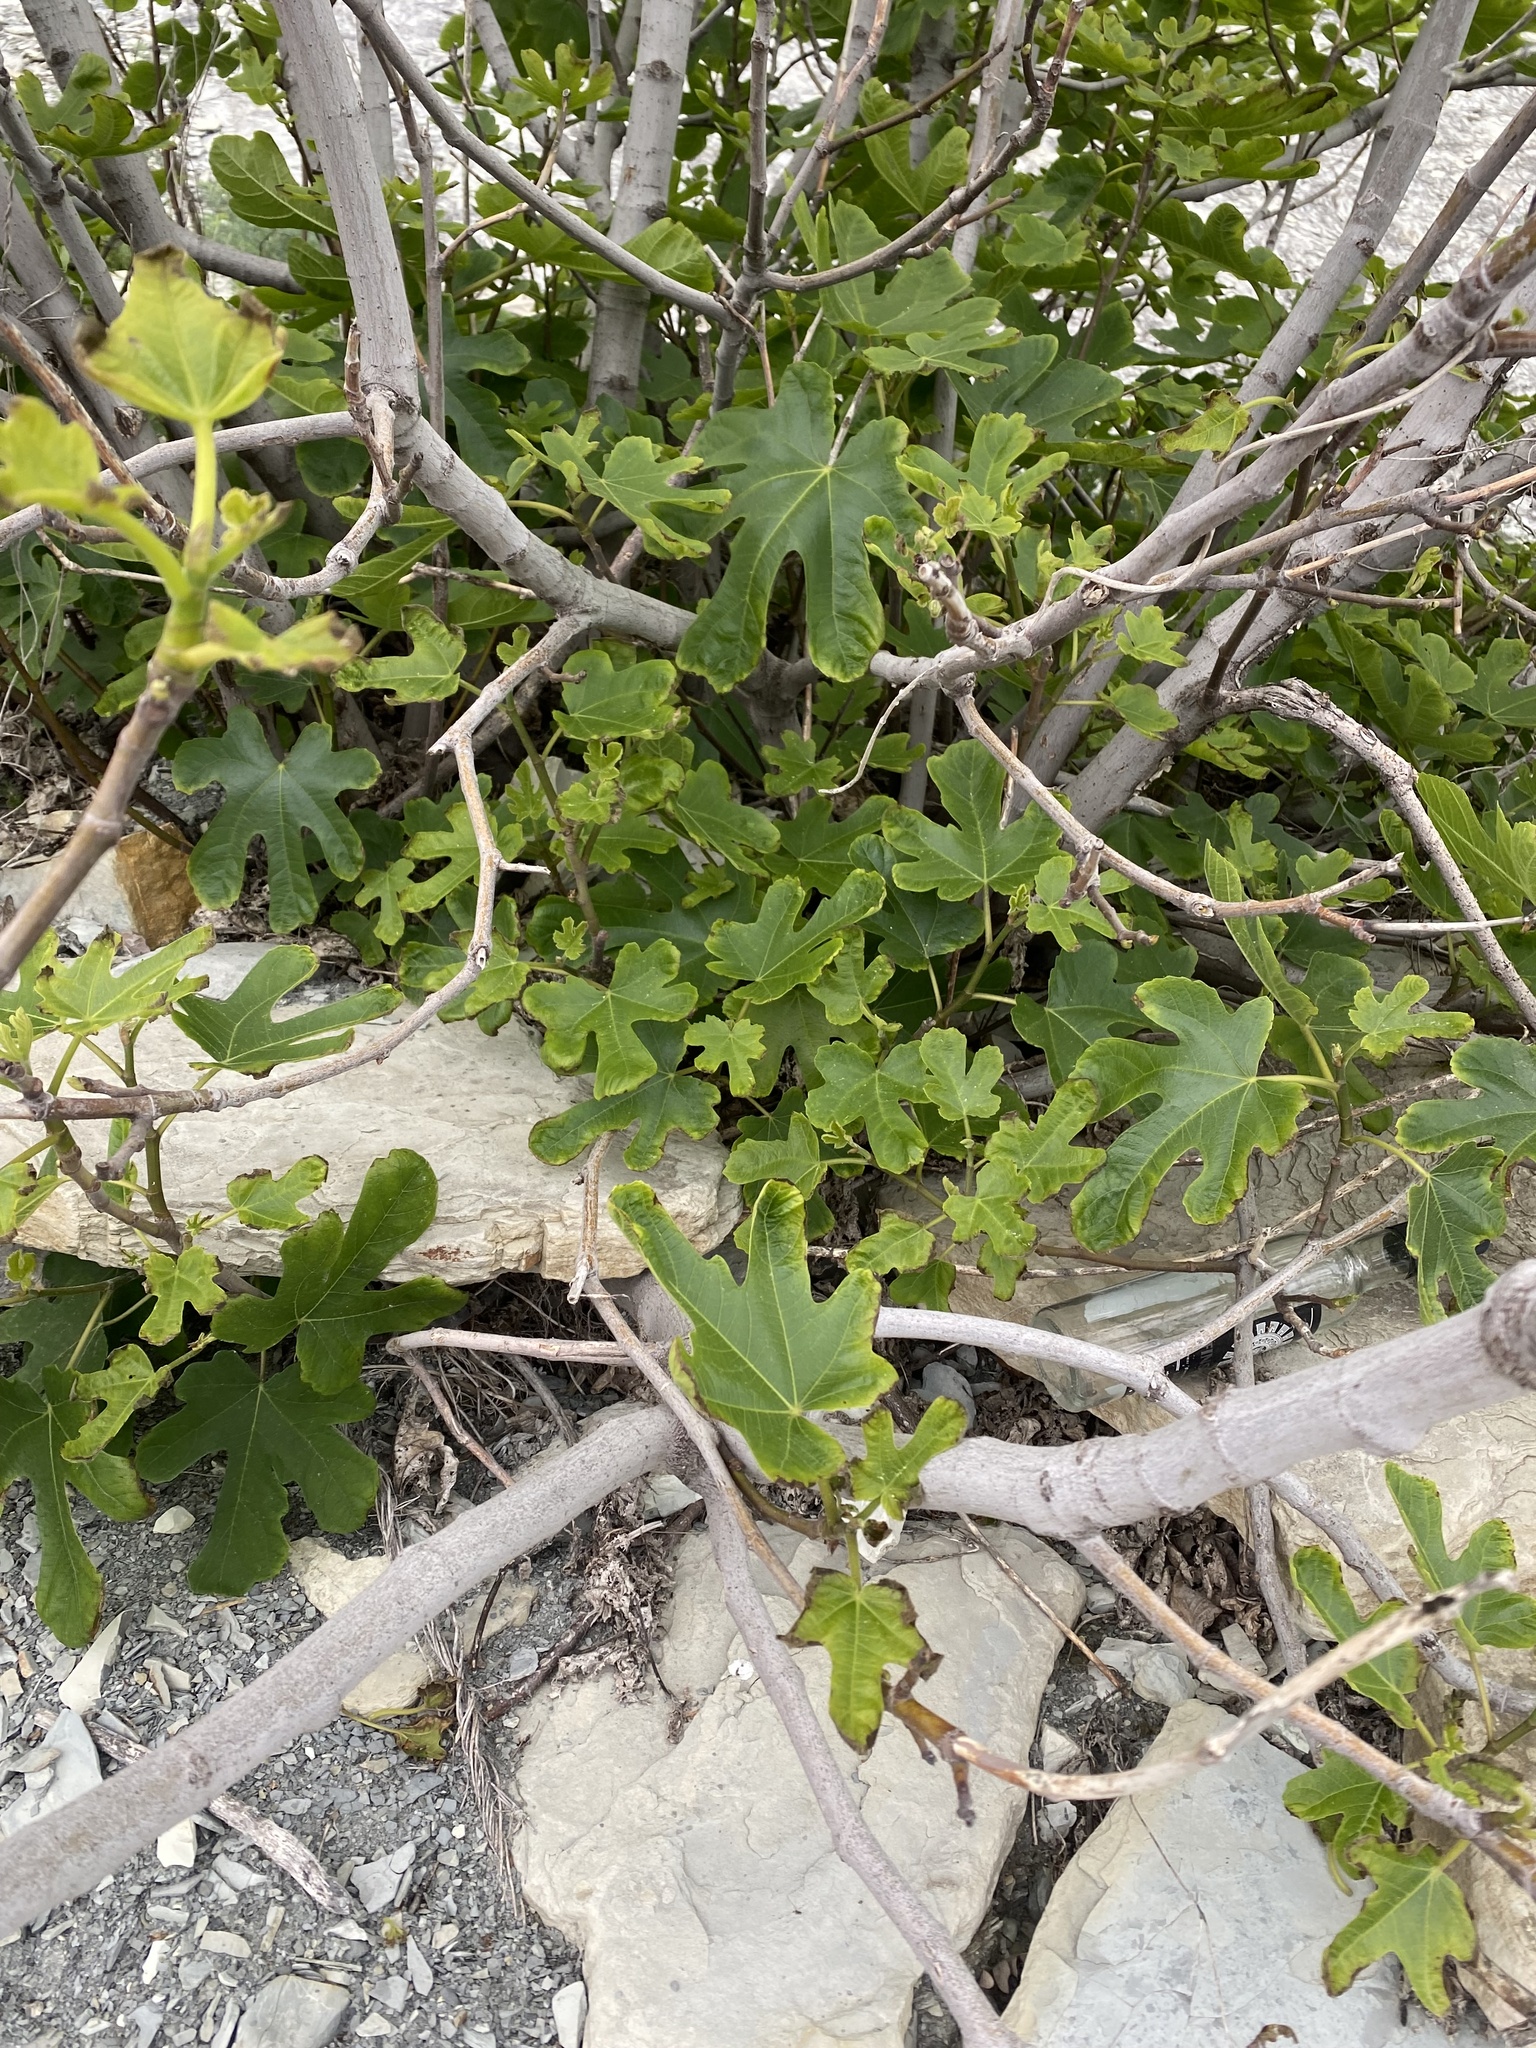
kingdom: Plantae
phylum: Tracheophyta
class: Magnoliopsida
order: Rosales
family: Moraceae
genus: Ficus
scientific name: Ficus carica
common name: Fig
